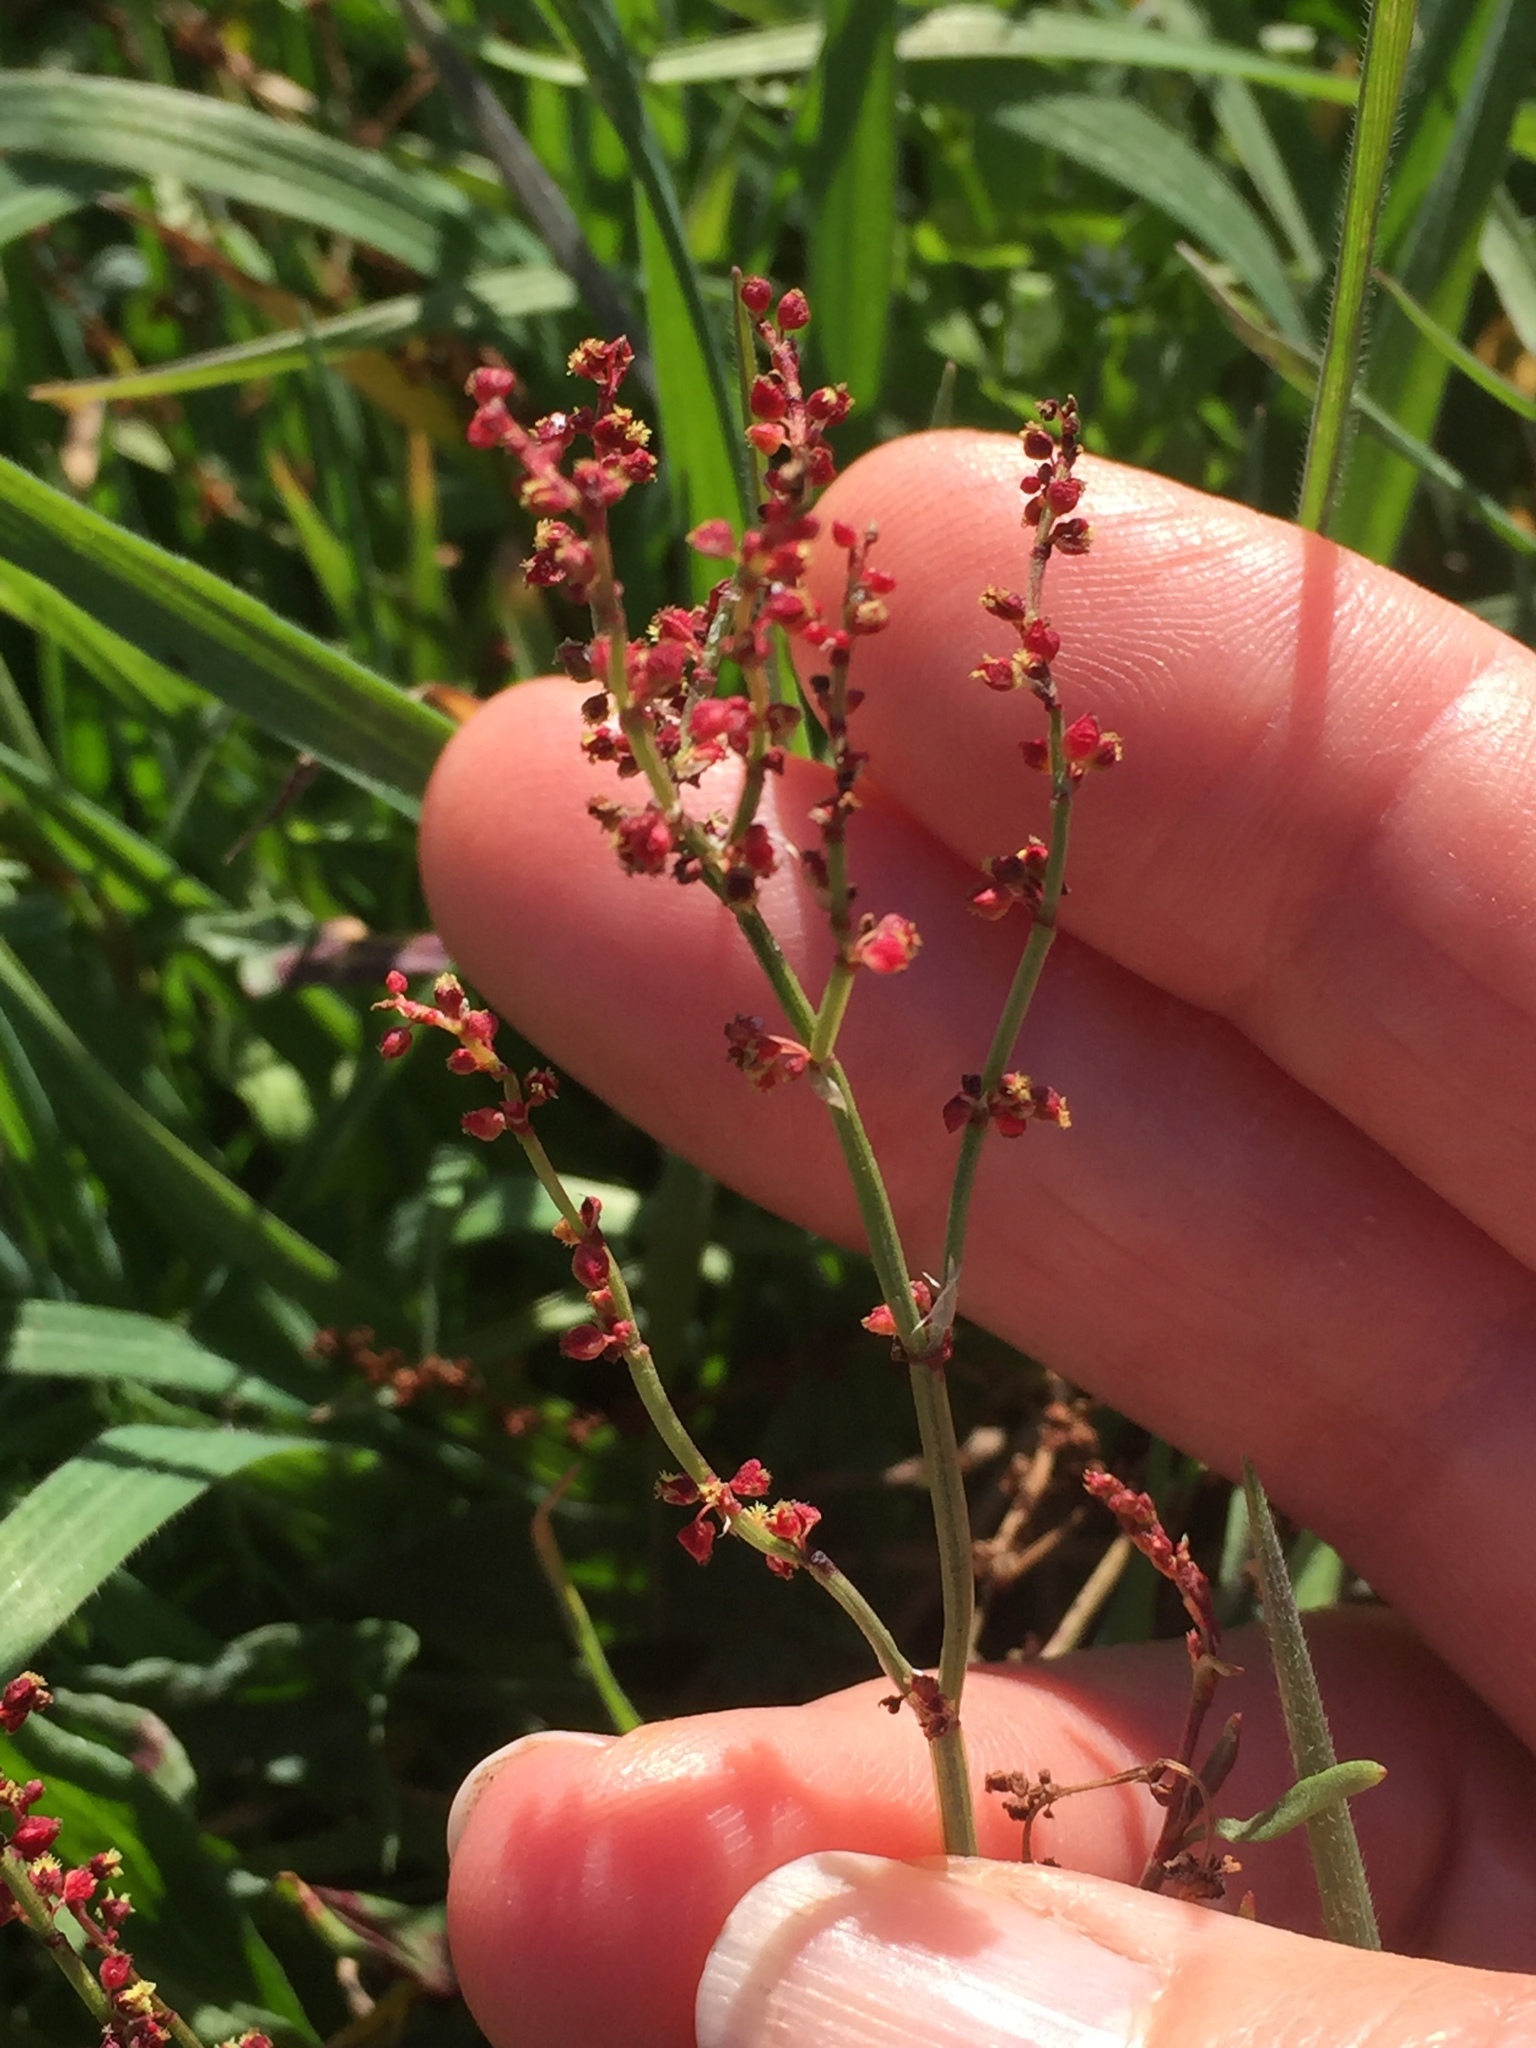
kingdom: Plantae
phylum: Tracheophyta
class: Magnoliopsida
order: Caryophyllales
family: Polygonaceae
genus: Rumex
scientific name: Rumex acetosella
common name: Common sheep sorrel
